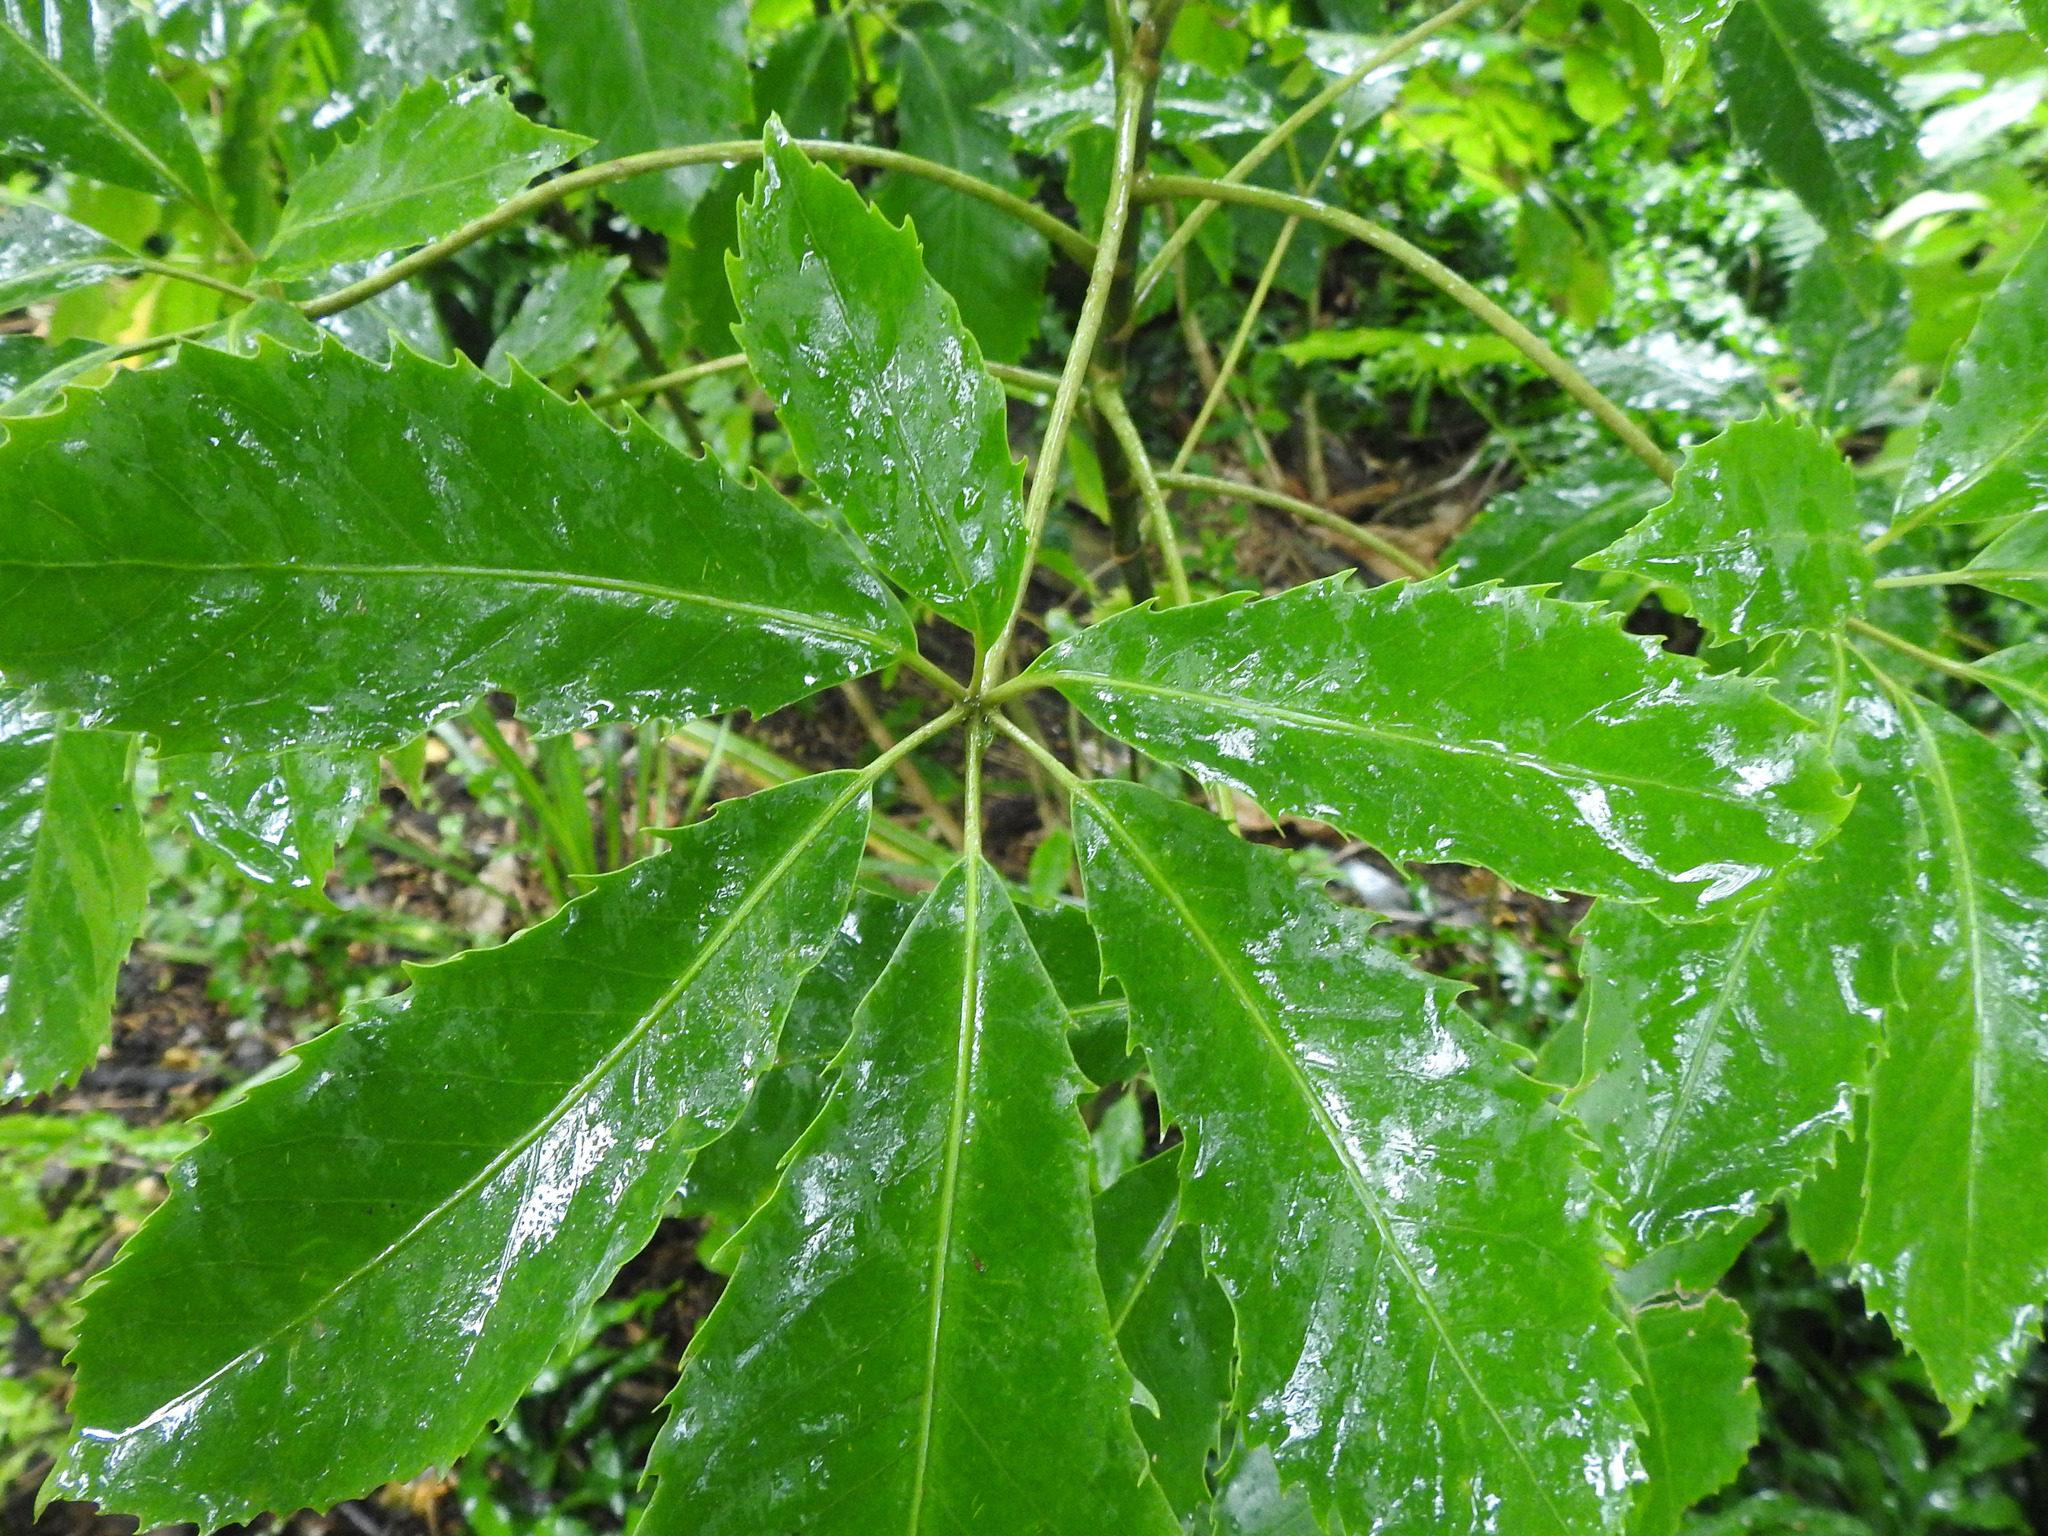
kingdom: Plantae
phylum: Tracheophyta
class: Magnoliopsida
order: Apiales
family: Araliaceae
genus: Neopanax
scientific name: Neopanax arboreus
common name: Five-fingers
